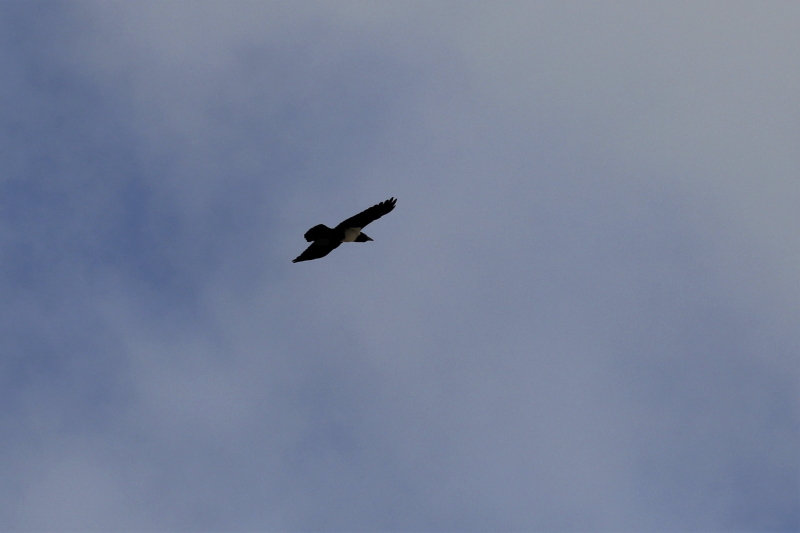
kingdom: Animalia
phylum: Chordata
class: Aves
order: Passeriformes
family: Corvidae
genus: Corvus
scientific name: Corvus albus
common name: Pied crow
